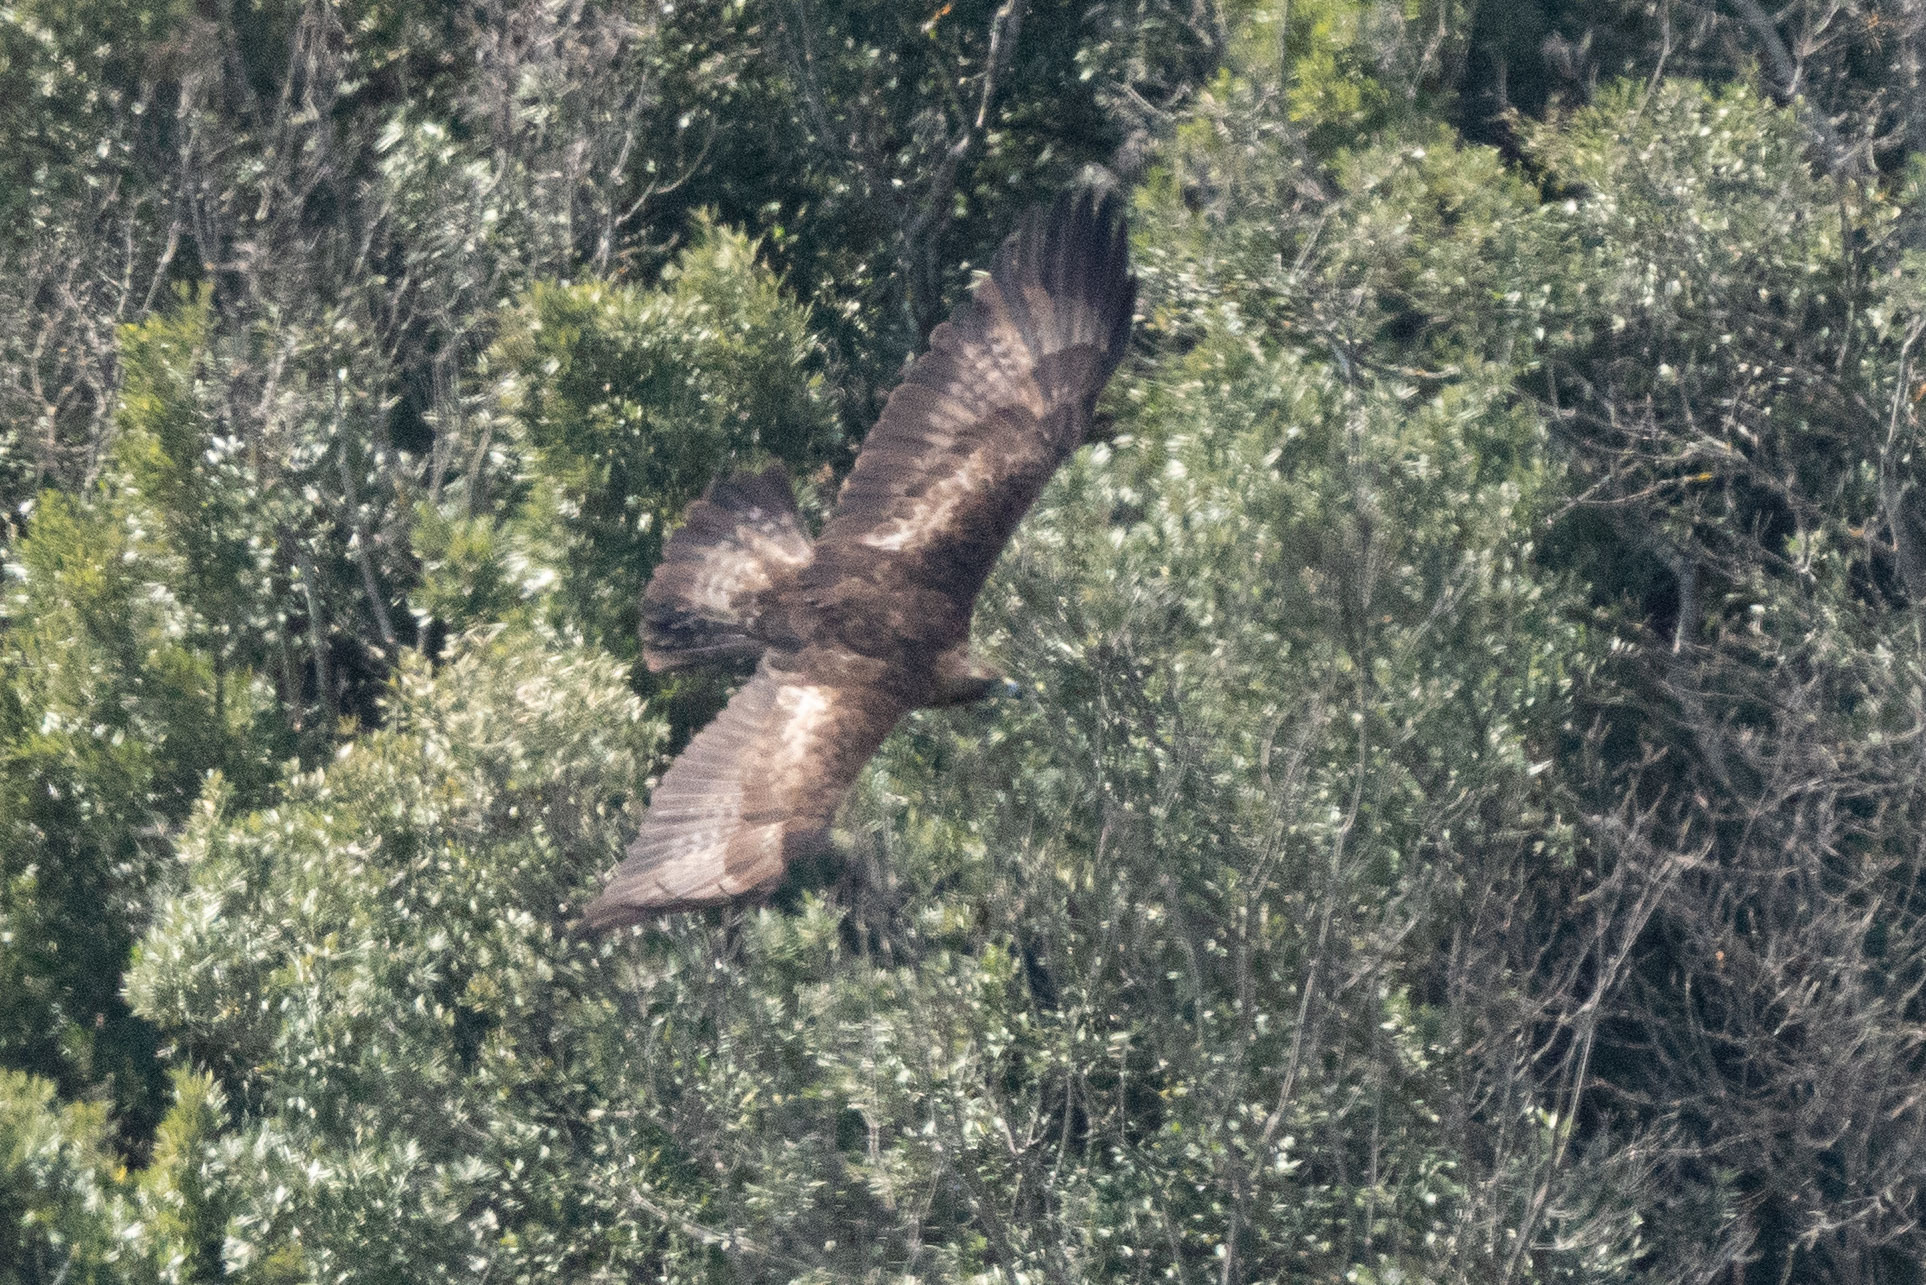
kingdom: Animalia
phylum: Chordata
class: Aves
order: Accipitriformes
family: Accipitridae
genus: Aquila
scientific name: Aquila chrysaetos
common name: Golden eagle
